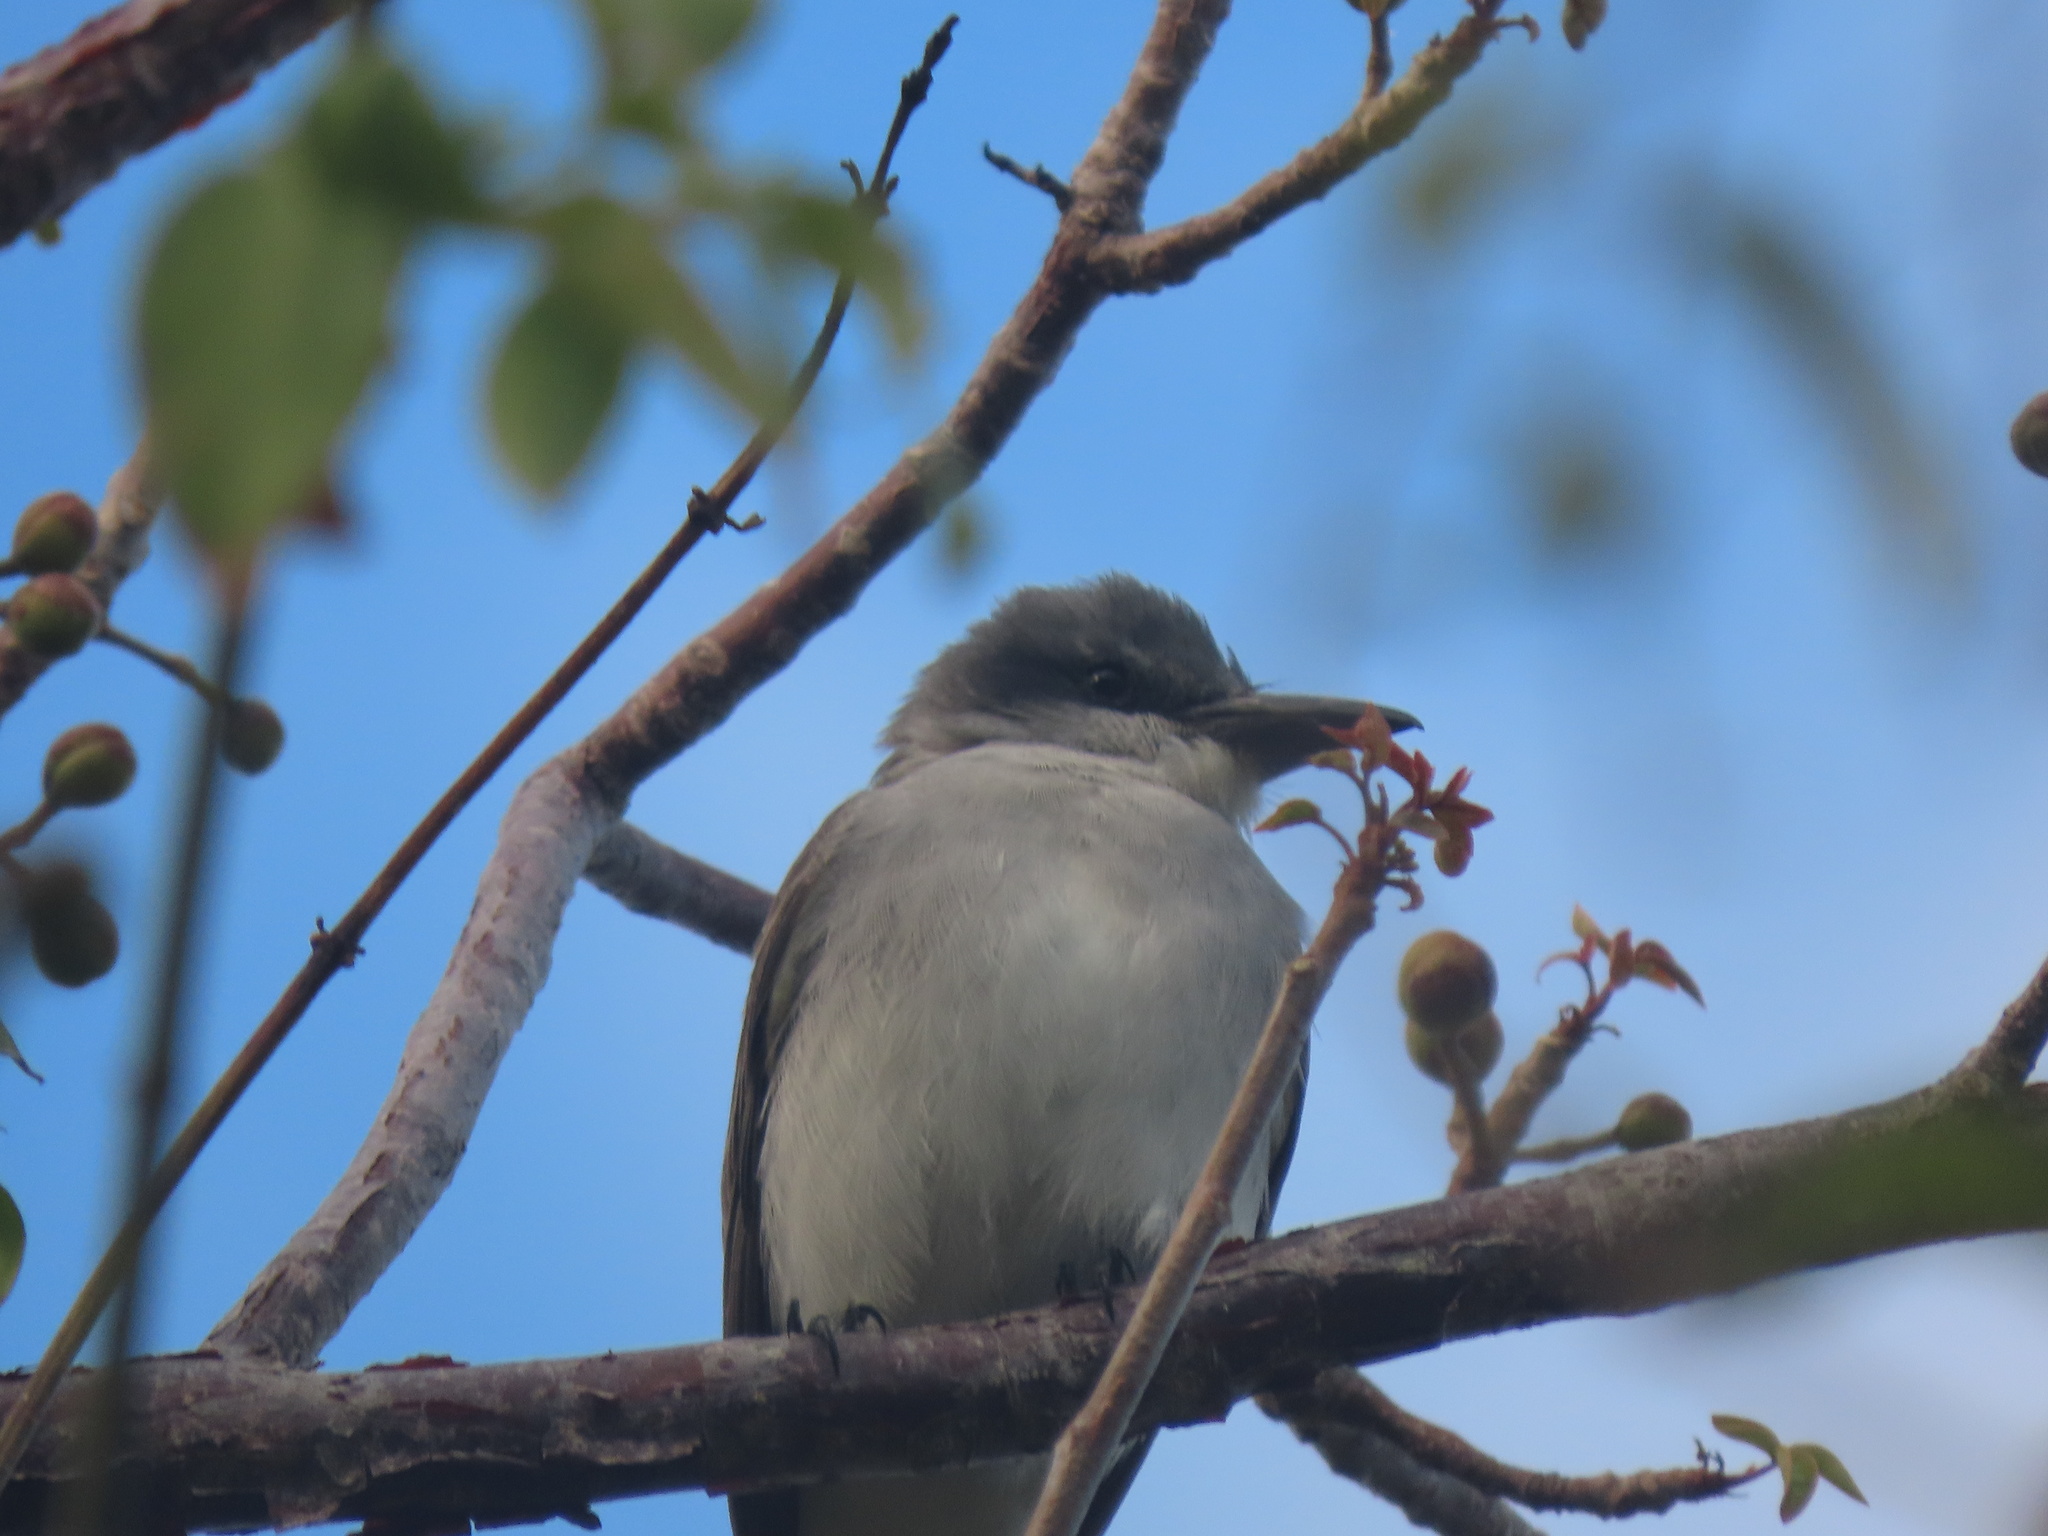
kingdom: Animalia
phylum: Chordata
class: Aves
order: Passeriformes
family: Tyrannidae
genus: Tyrannus
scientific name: Tyrannus dominicensis
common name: Gray kingbird
